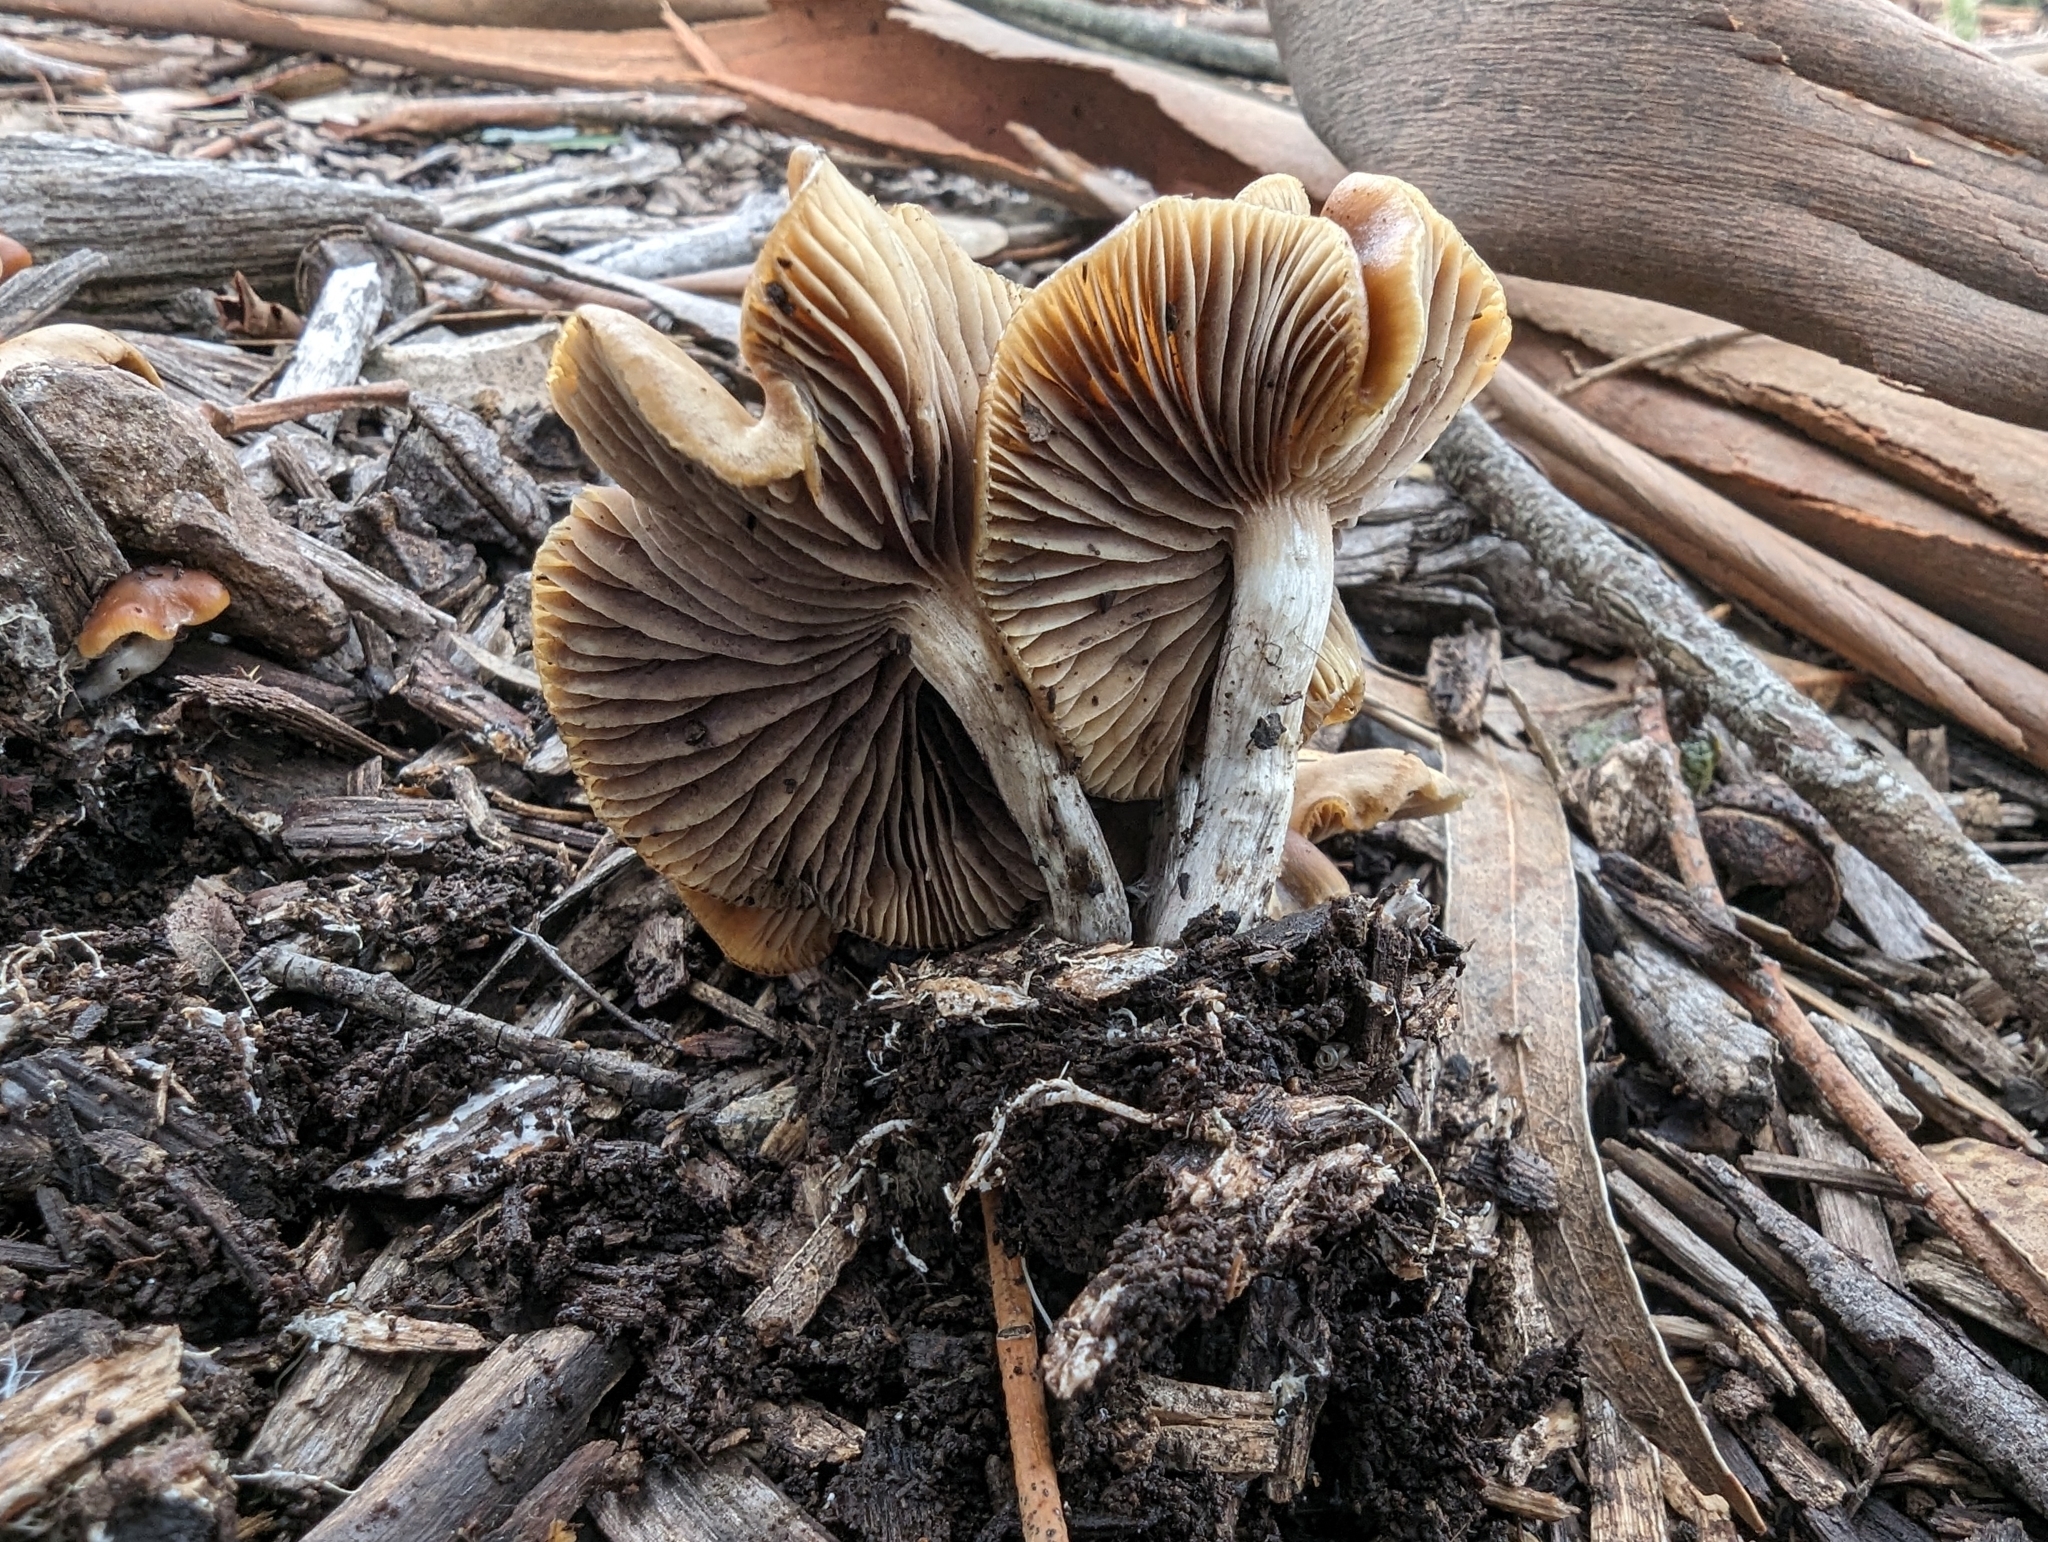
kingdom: Fungi
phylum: Basidiomycota
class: Agaricomycetes
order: Agaricales
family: Hymenogastraceae
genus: Psilocybe
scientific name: Psilocybe cyanescens
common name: Blueleg brownie
